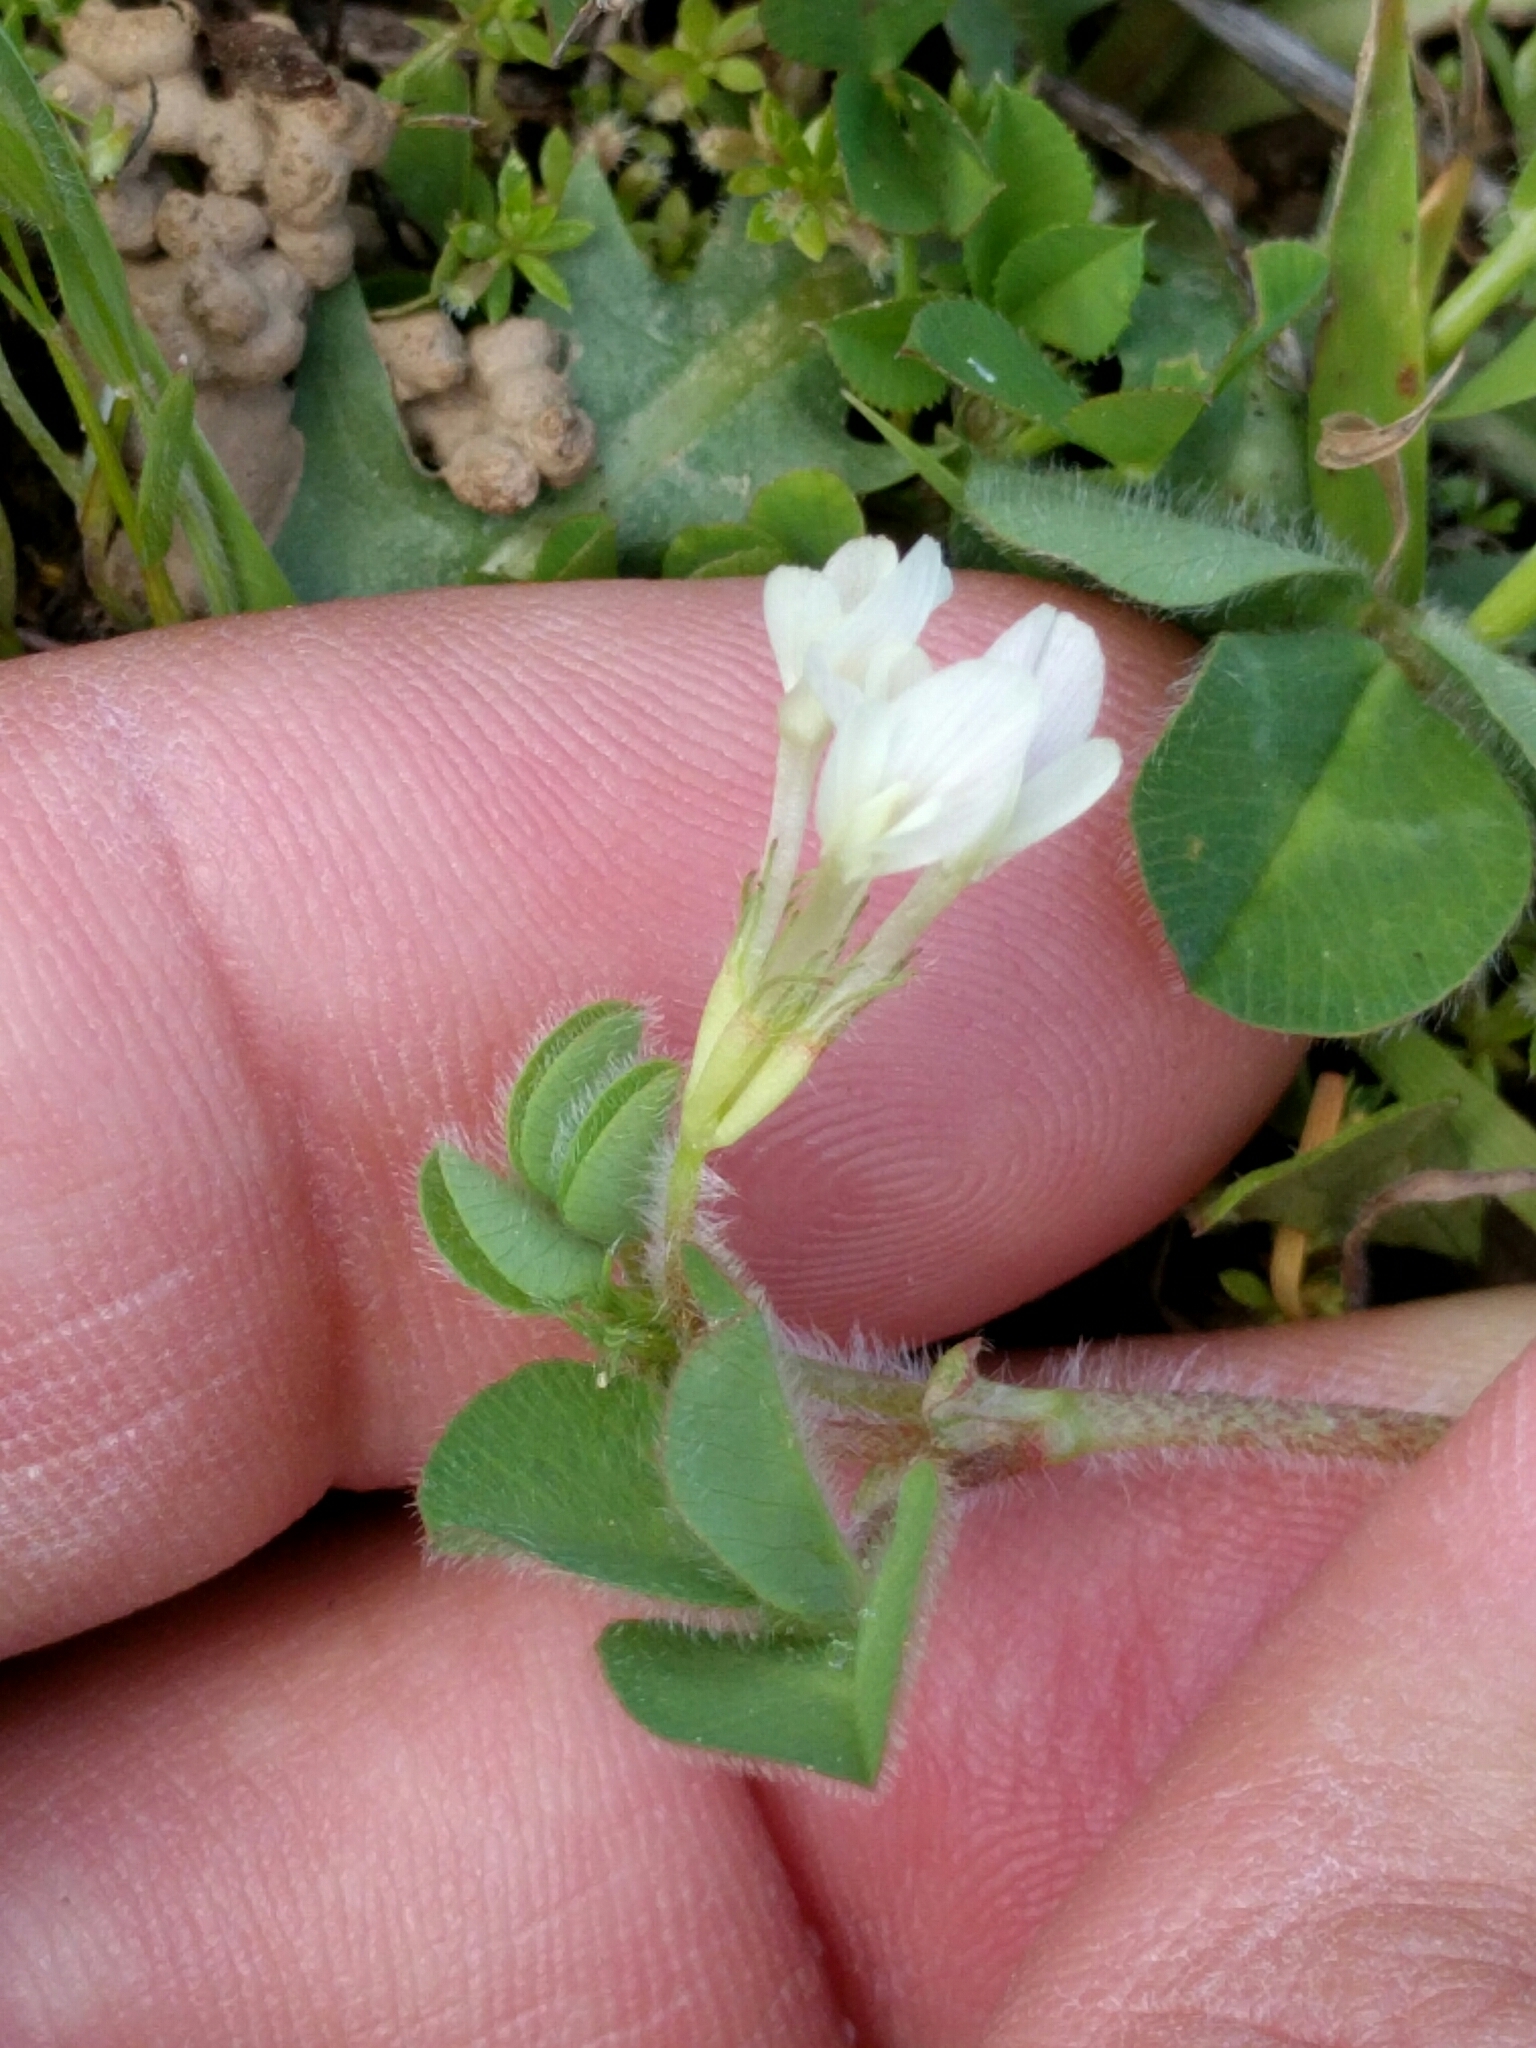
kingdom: Plantae
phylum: Tracheophyta
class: Magnoliopsida
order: Fabales
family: Fabaceae
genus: Trifolium
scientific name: Trifolium subterraneum
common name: Subterranean clover
